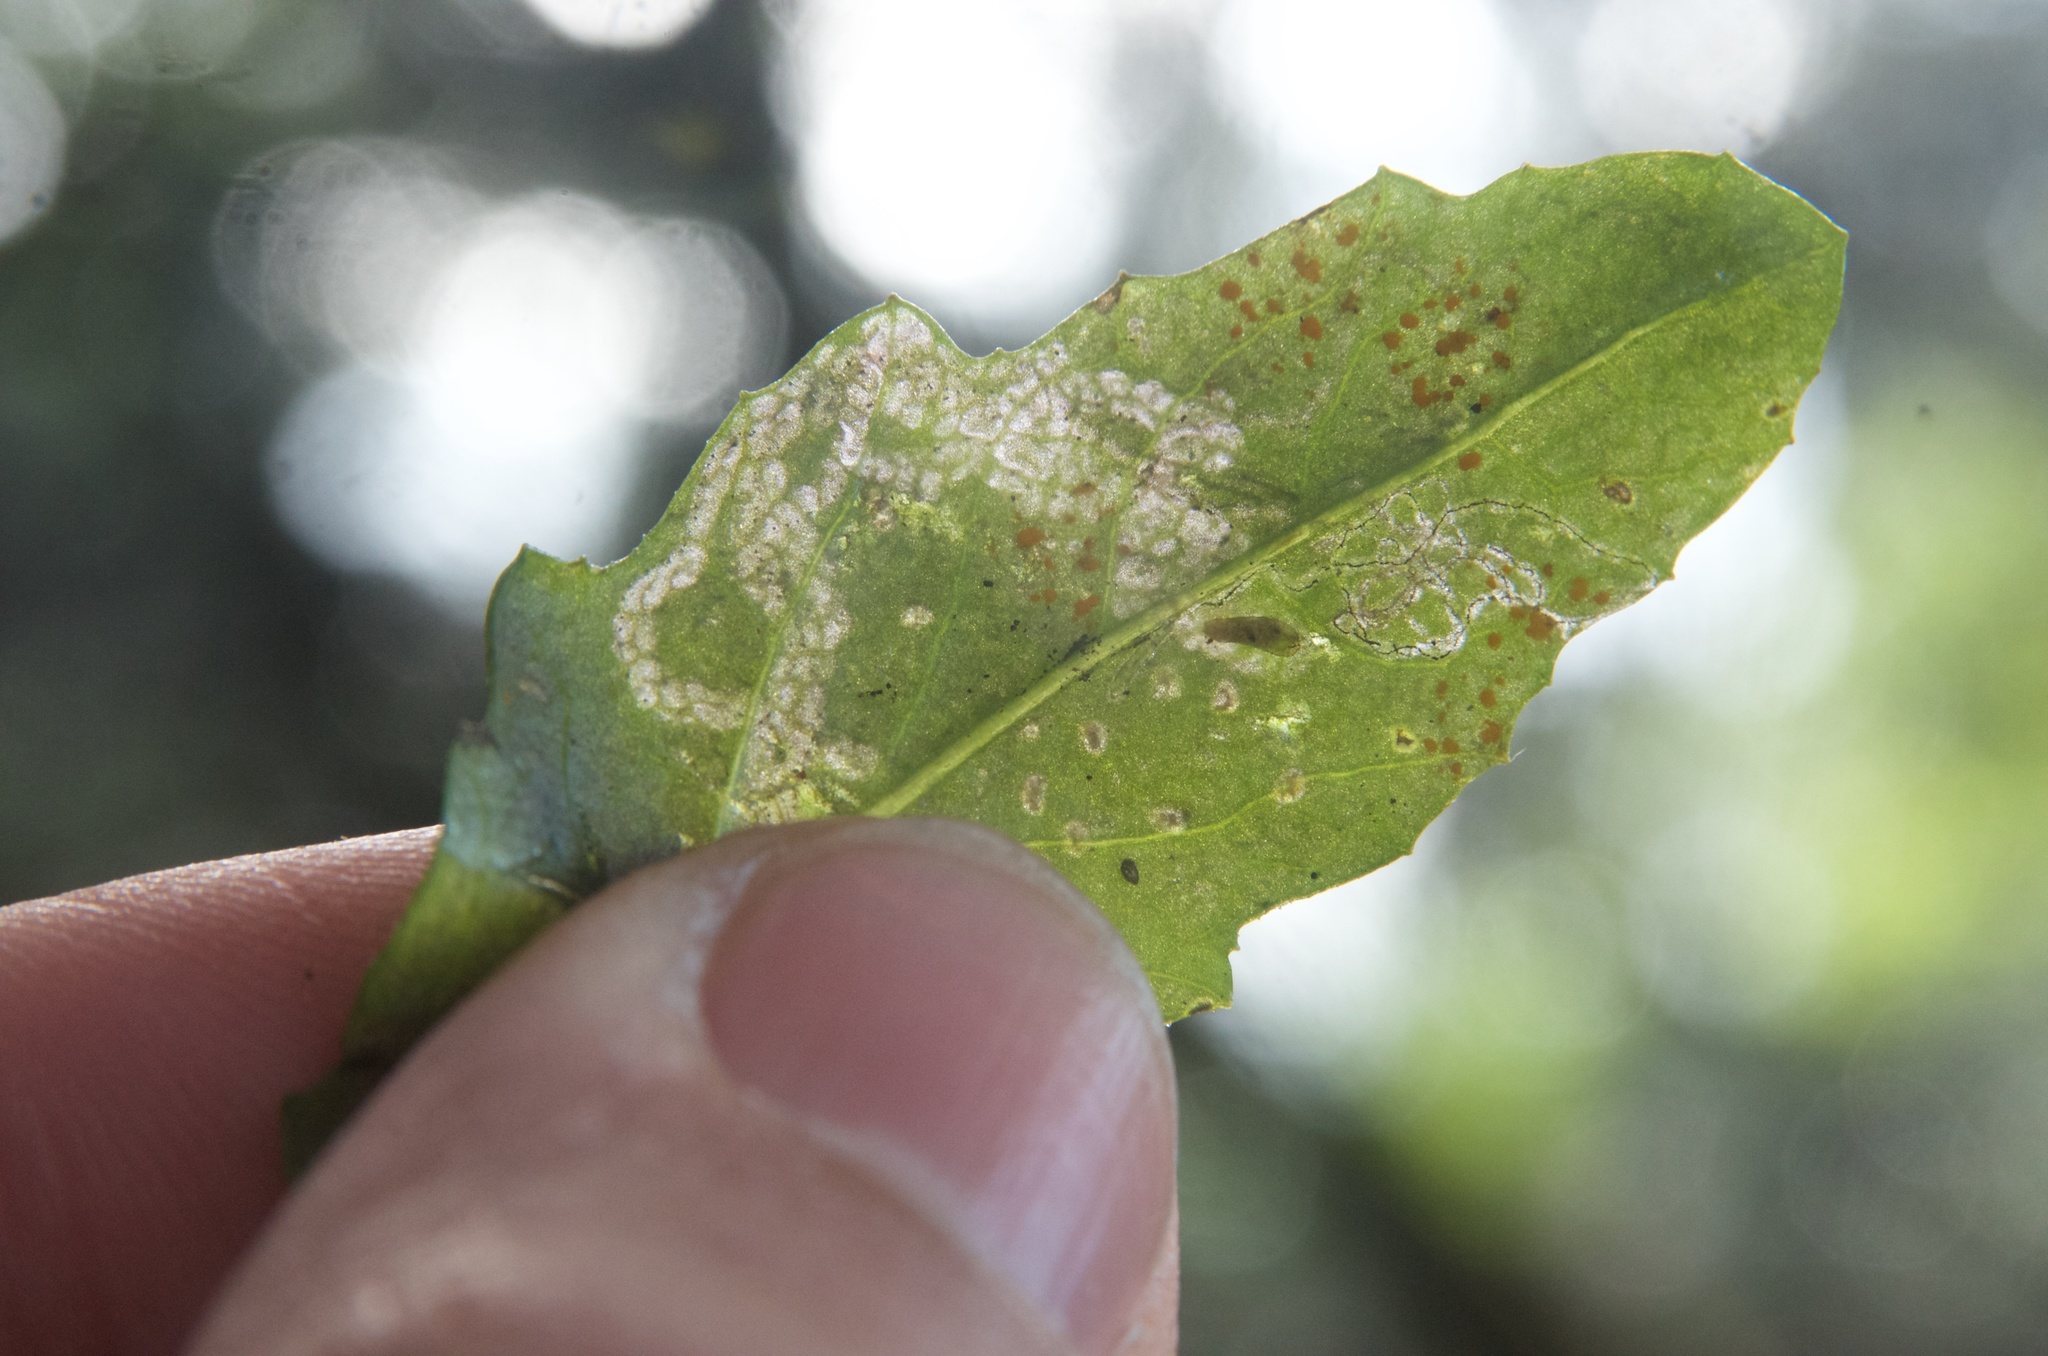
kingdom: Fungi
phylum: Basidiomycota
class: Pucciniomycetes
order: Pucciniales
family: Coleosporiaceae
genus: Coleosporium
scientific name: Coleosporium tussilaginis
